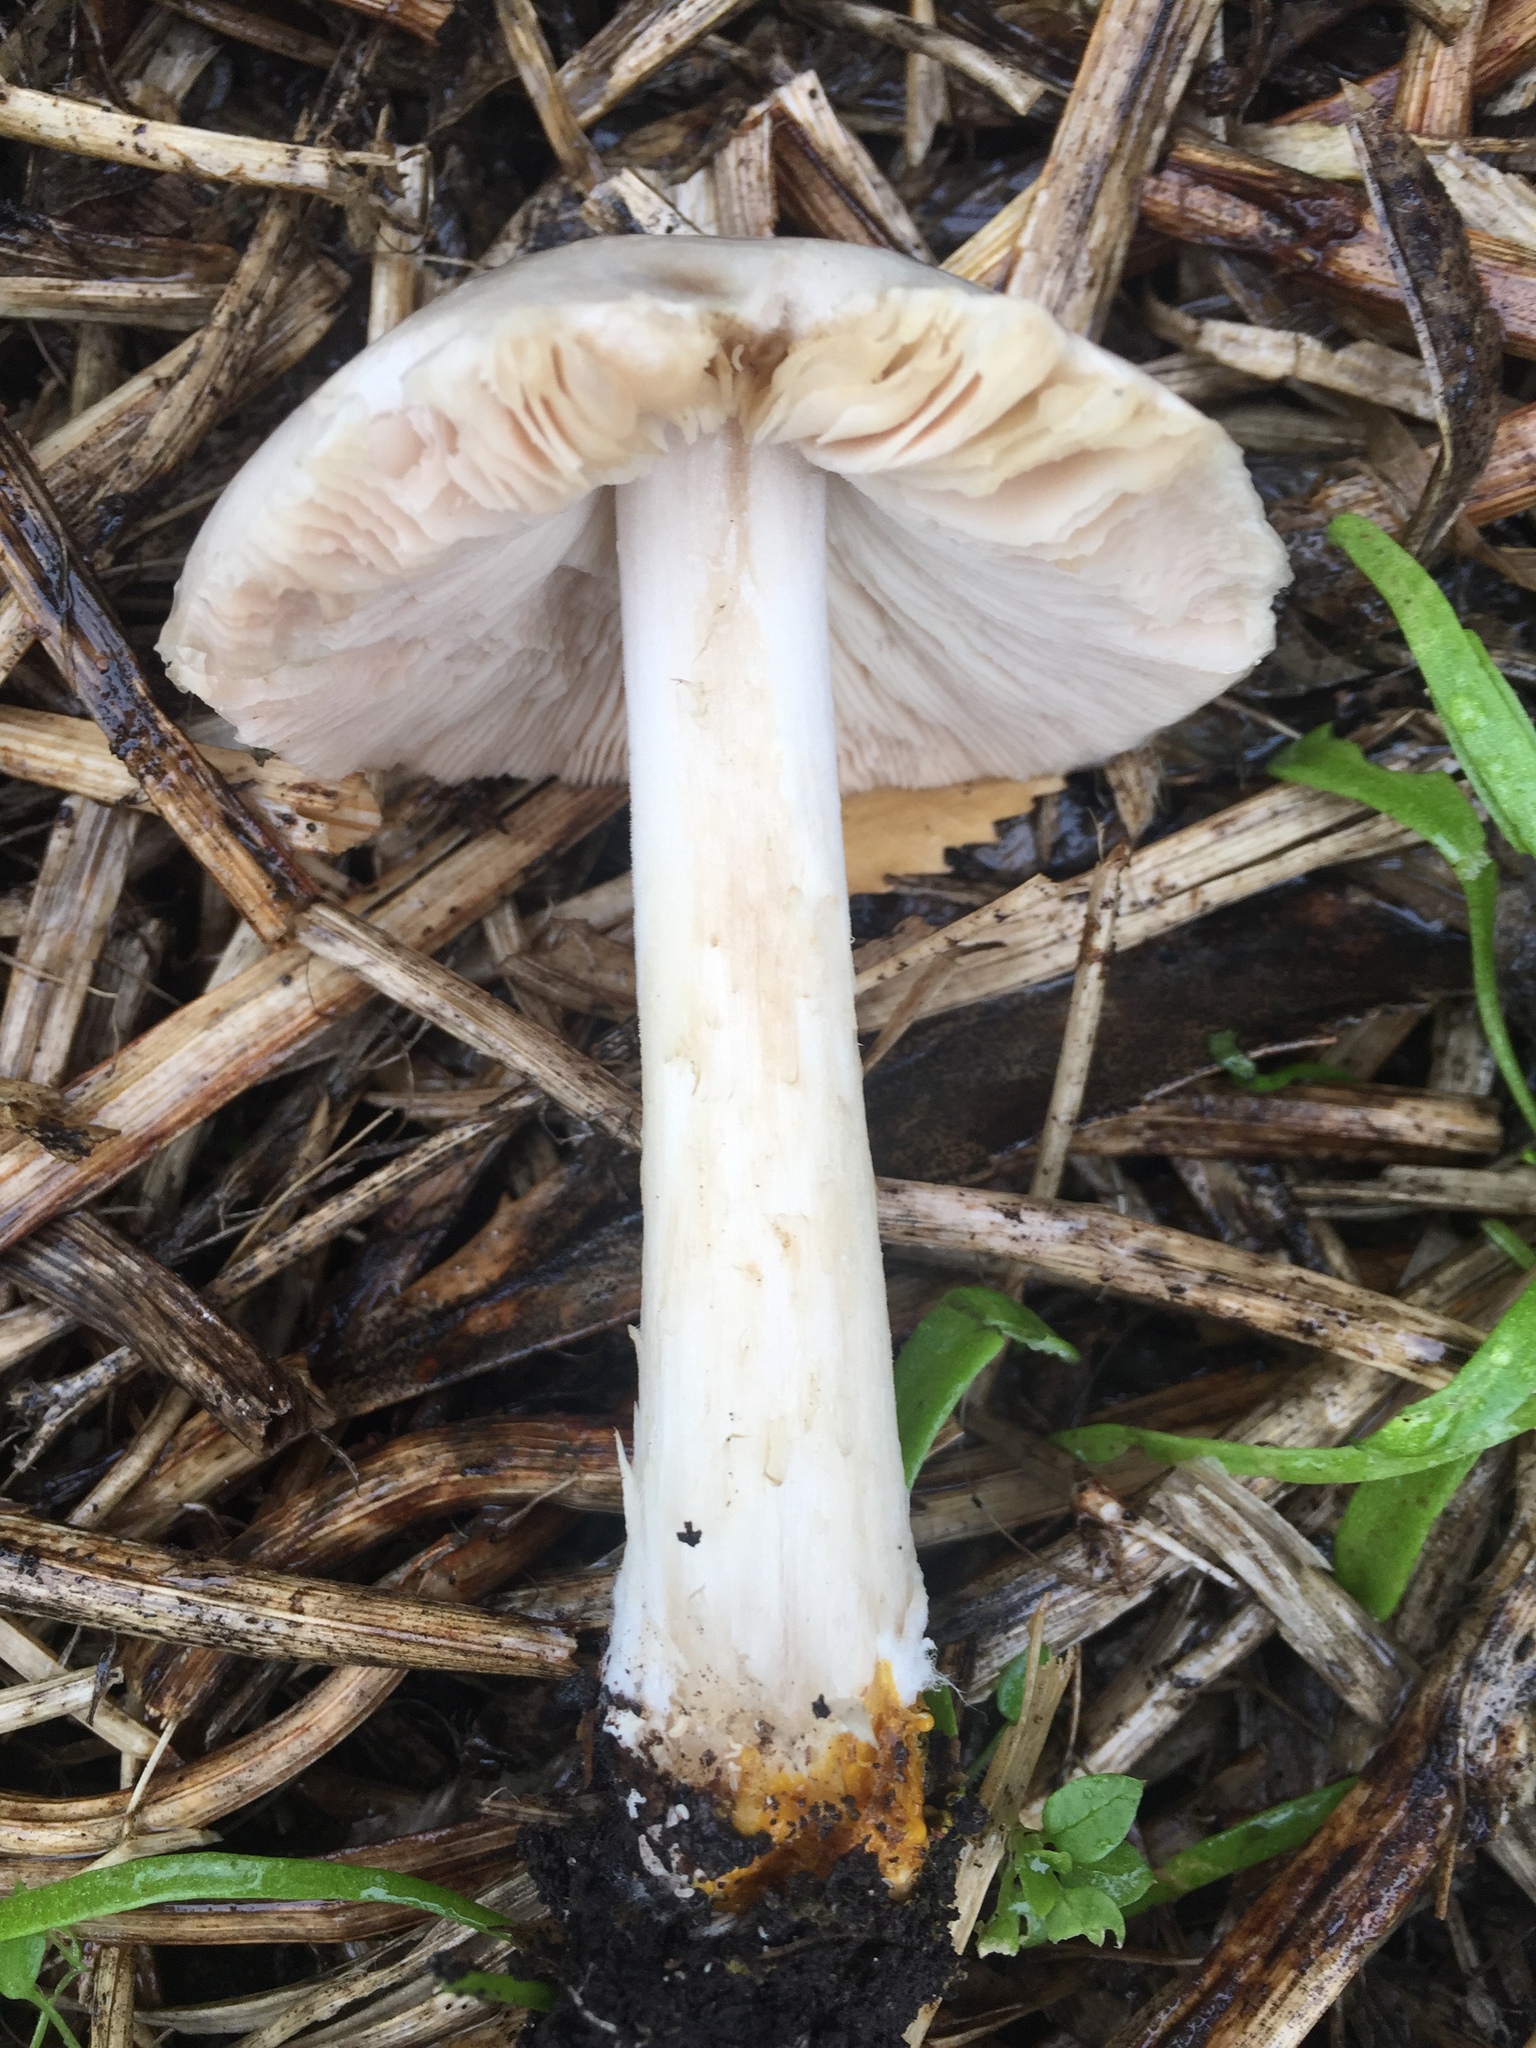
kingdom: Fungi
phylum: Basidiomycota
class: Agaricomycetes
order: Agaricales
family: Pluteaceae
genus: Volvopluteus
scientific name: Volvopluteus gloiocephalus
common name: Stubble rosegill
